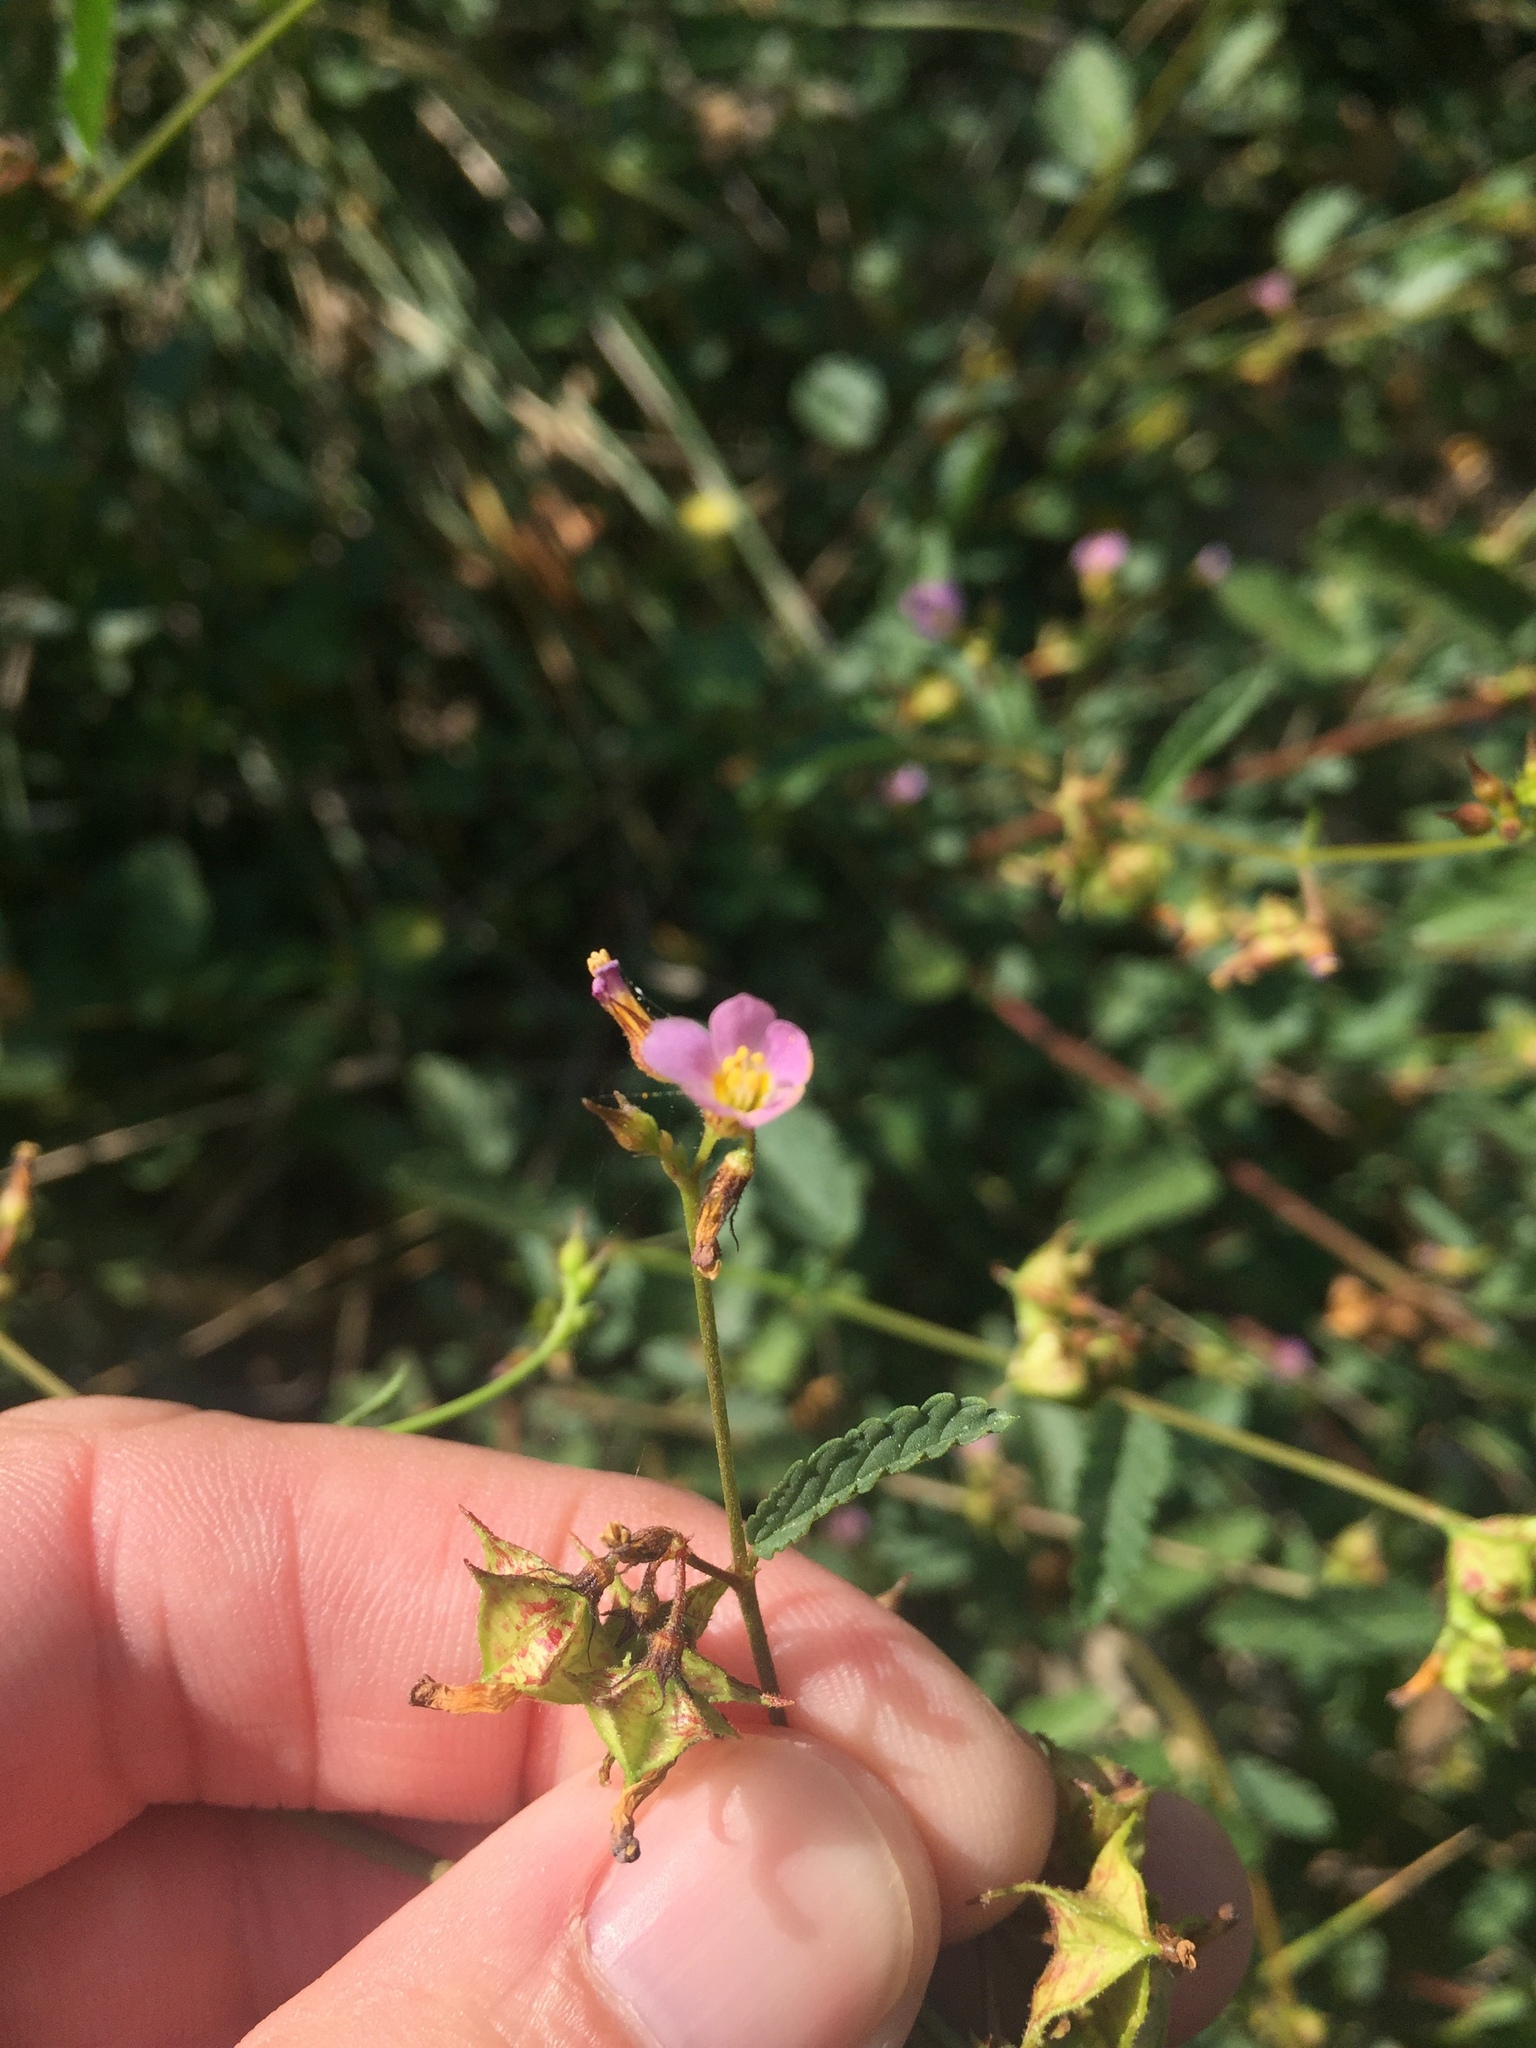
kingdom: Plantae
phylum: Tracheophyta
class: Magnoliopsida
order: Malvales
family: Malvaceae
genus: Melochia
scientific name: Melochia pyramidata
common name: Pyramidflower
